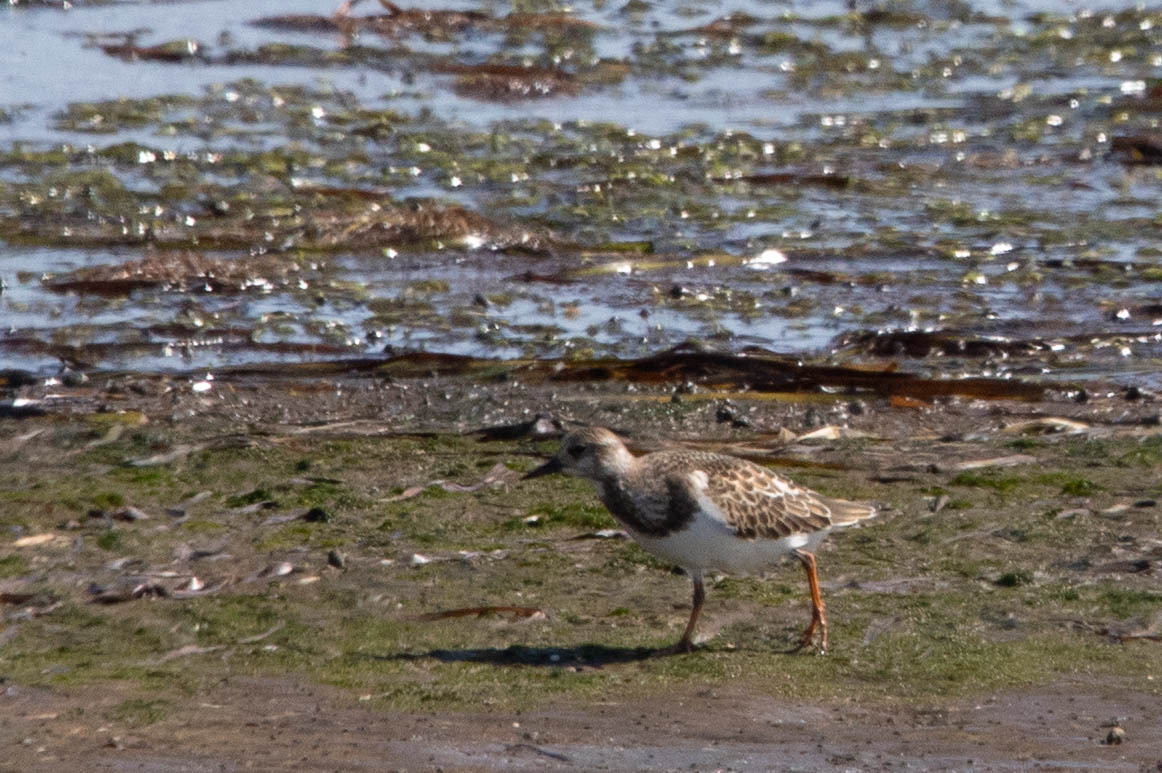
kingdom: Animalia
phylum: Chordata
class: Aves
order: Charadriiformes
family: Scolopacidae
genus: Arenaria
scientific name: Arenaria interpres
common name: Ruddy turnstone
